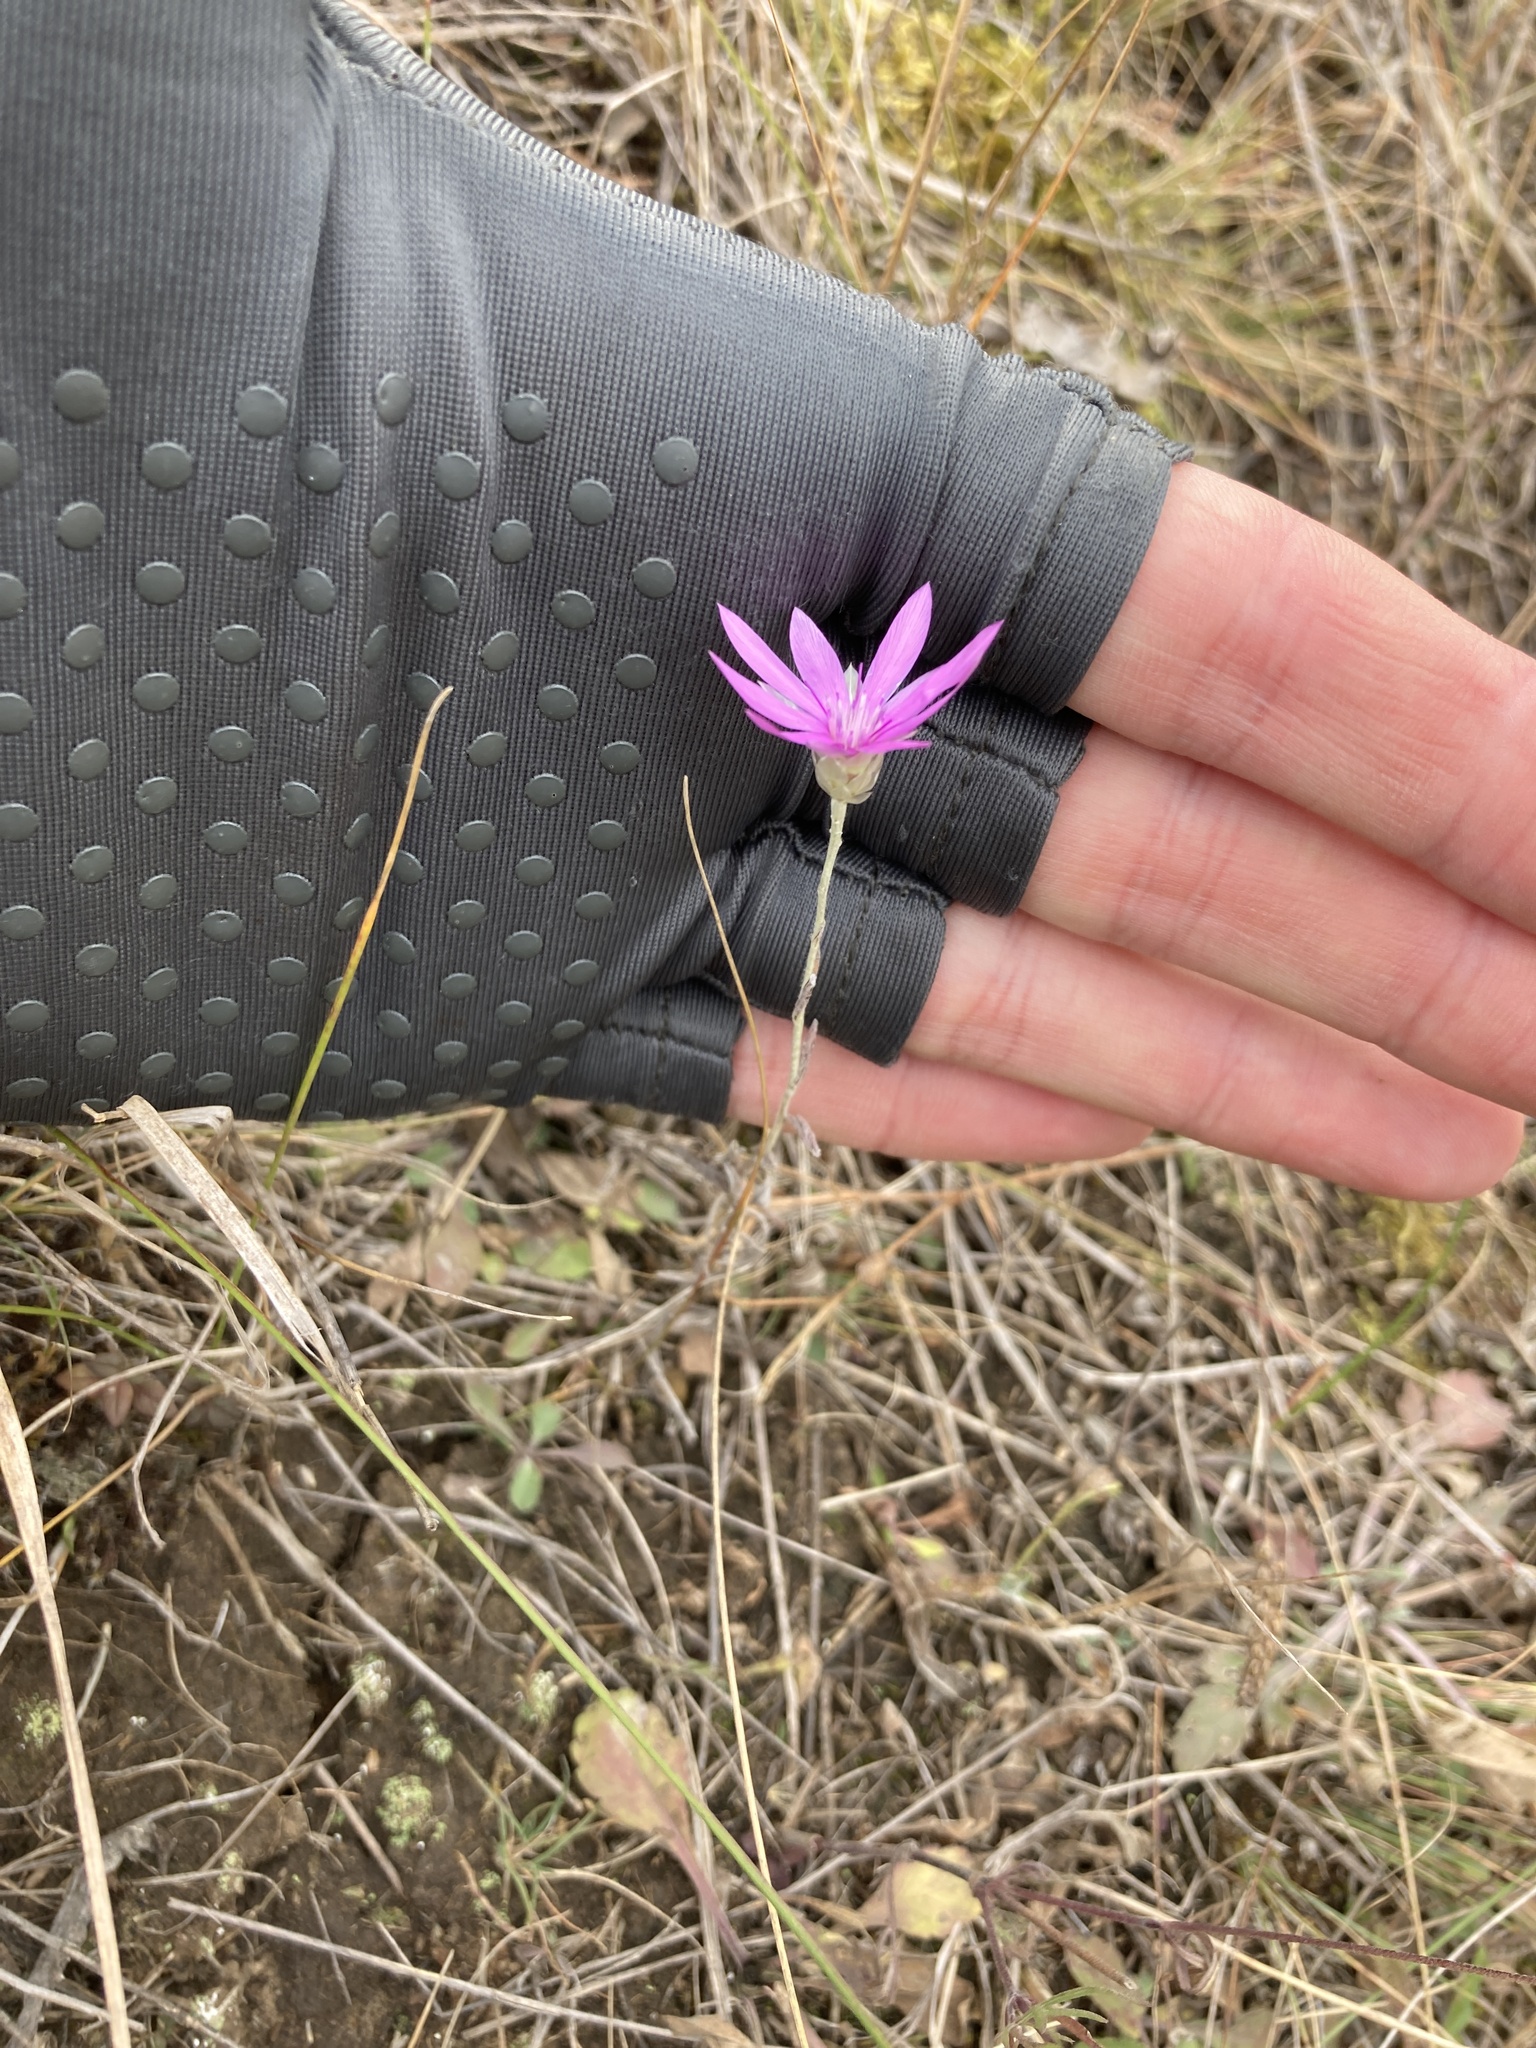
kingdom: Plantae
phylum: Tracheophyta
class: Magnoliopsida
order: Asterales
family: Asteraceae
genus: Xeranthemum
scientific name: Xeranthemum annuum
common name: Immortelle
